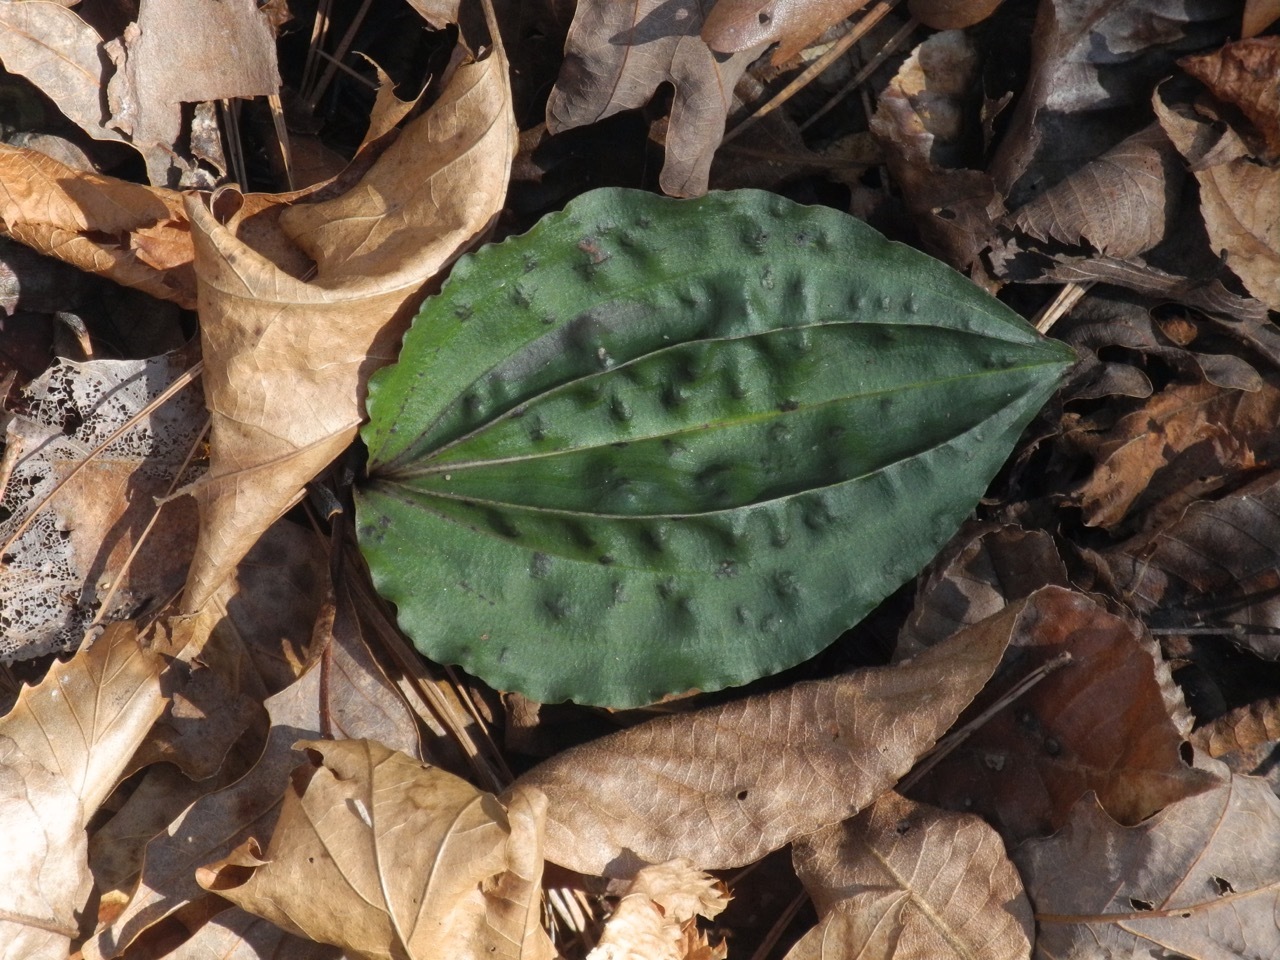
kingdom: Plantae
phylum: Tracheophyta
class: Liliopsida
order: Asparagales
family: Orchidaceae
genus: Tipularia
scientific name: Tipularia discolor
